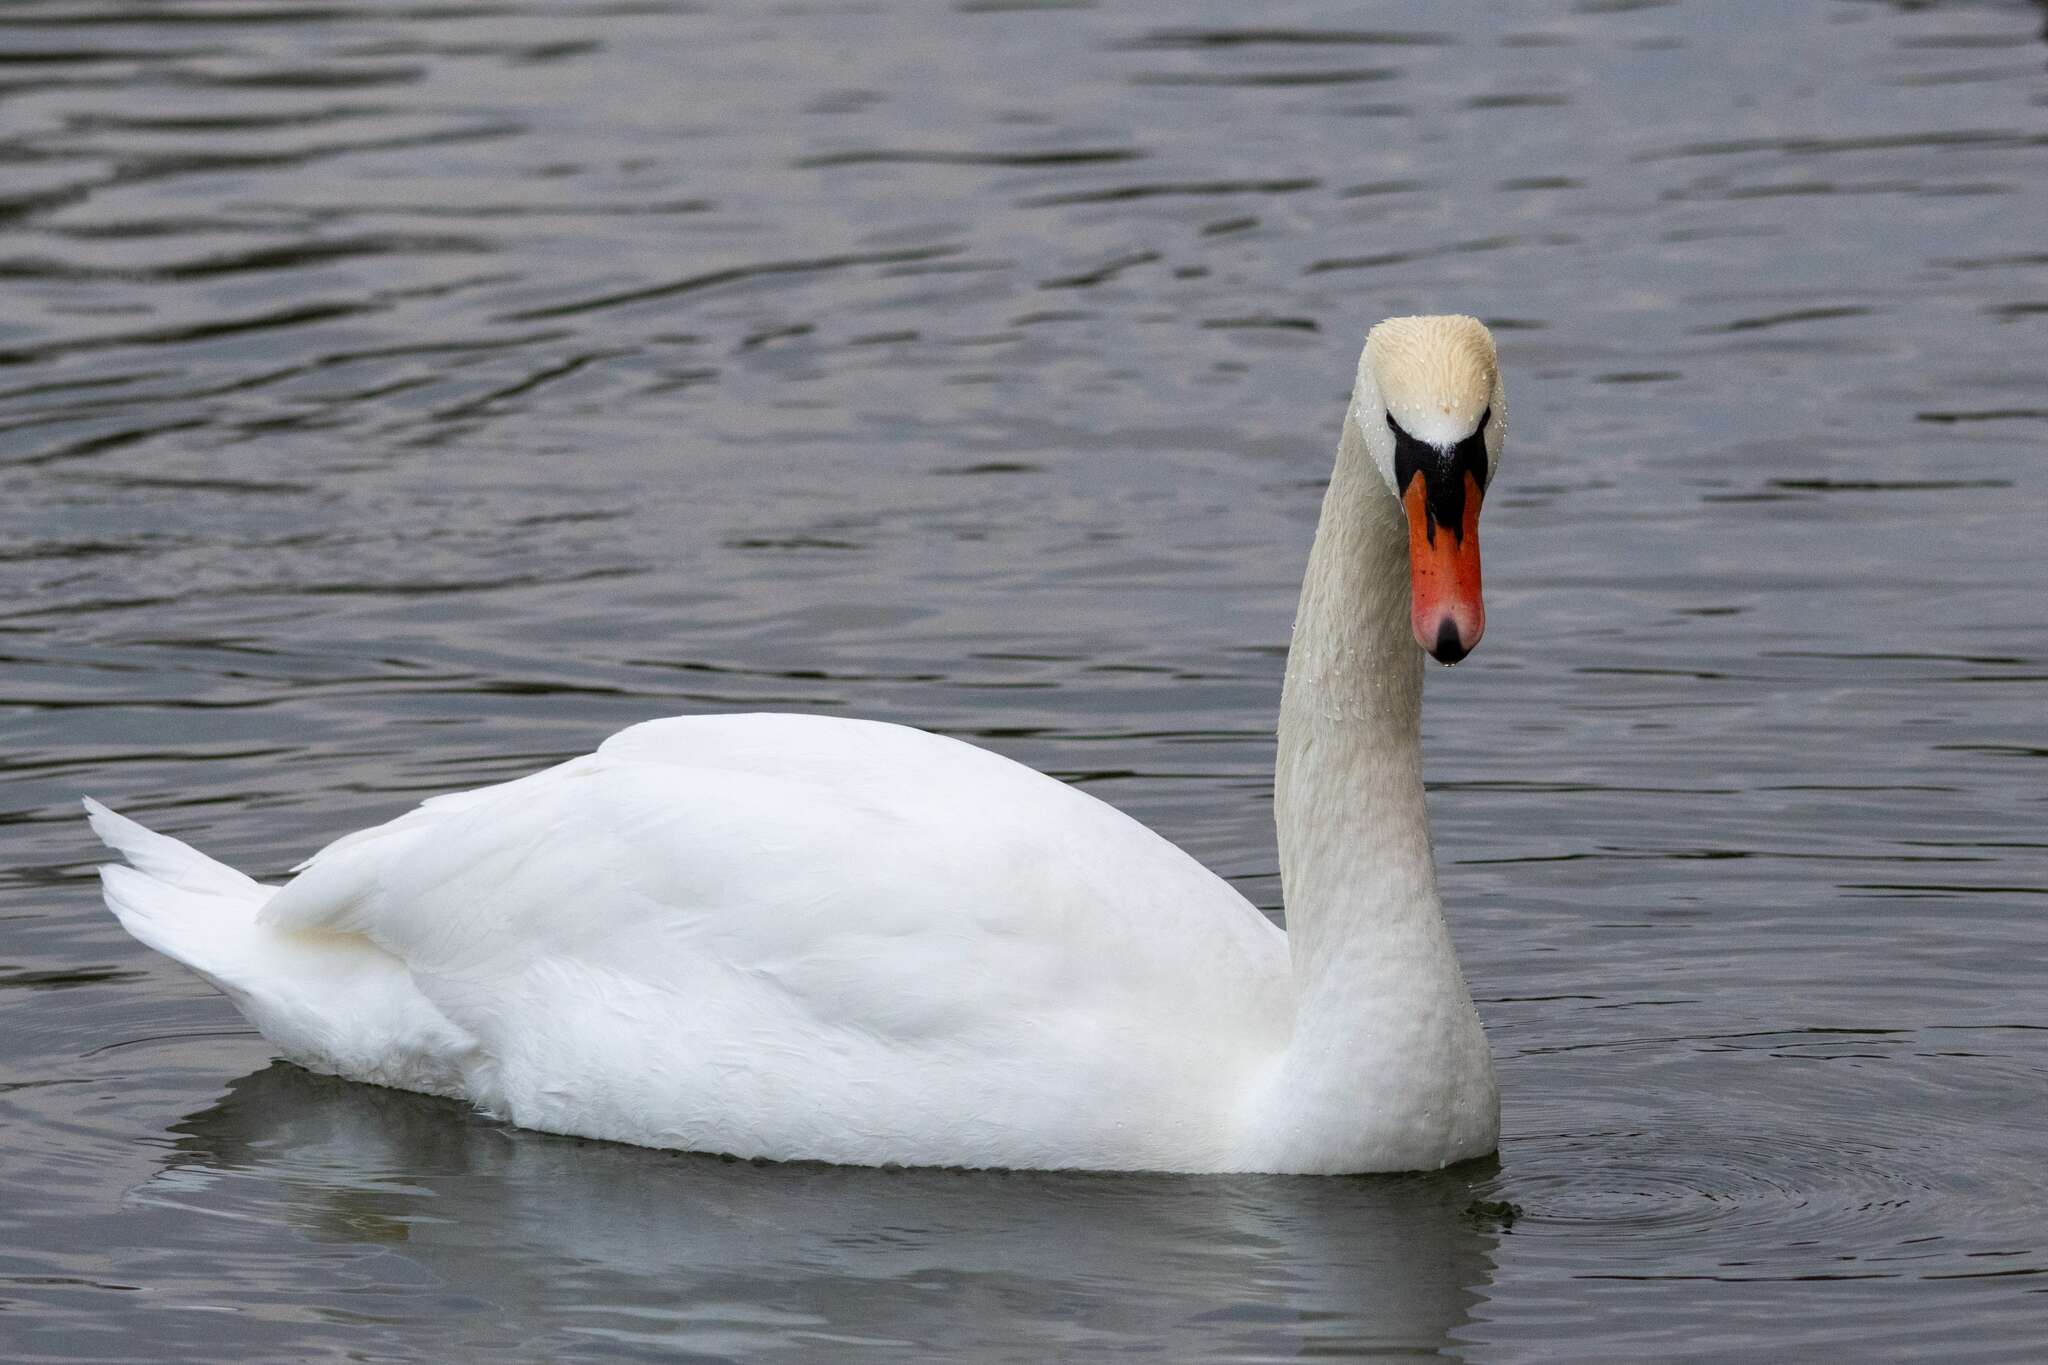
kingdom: Animalia
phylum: Chordata
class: Aves
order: Anseriformes
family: Anatidae
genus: Cygnus
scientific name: Cygnus olor
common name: Mute swan
